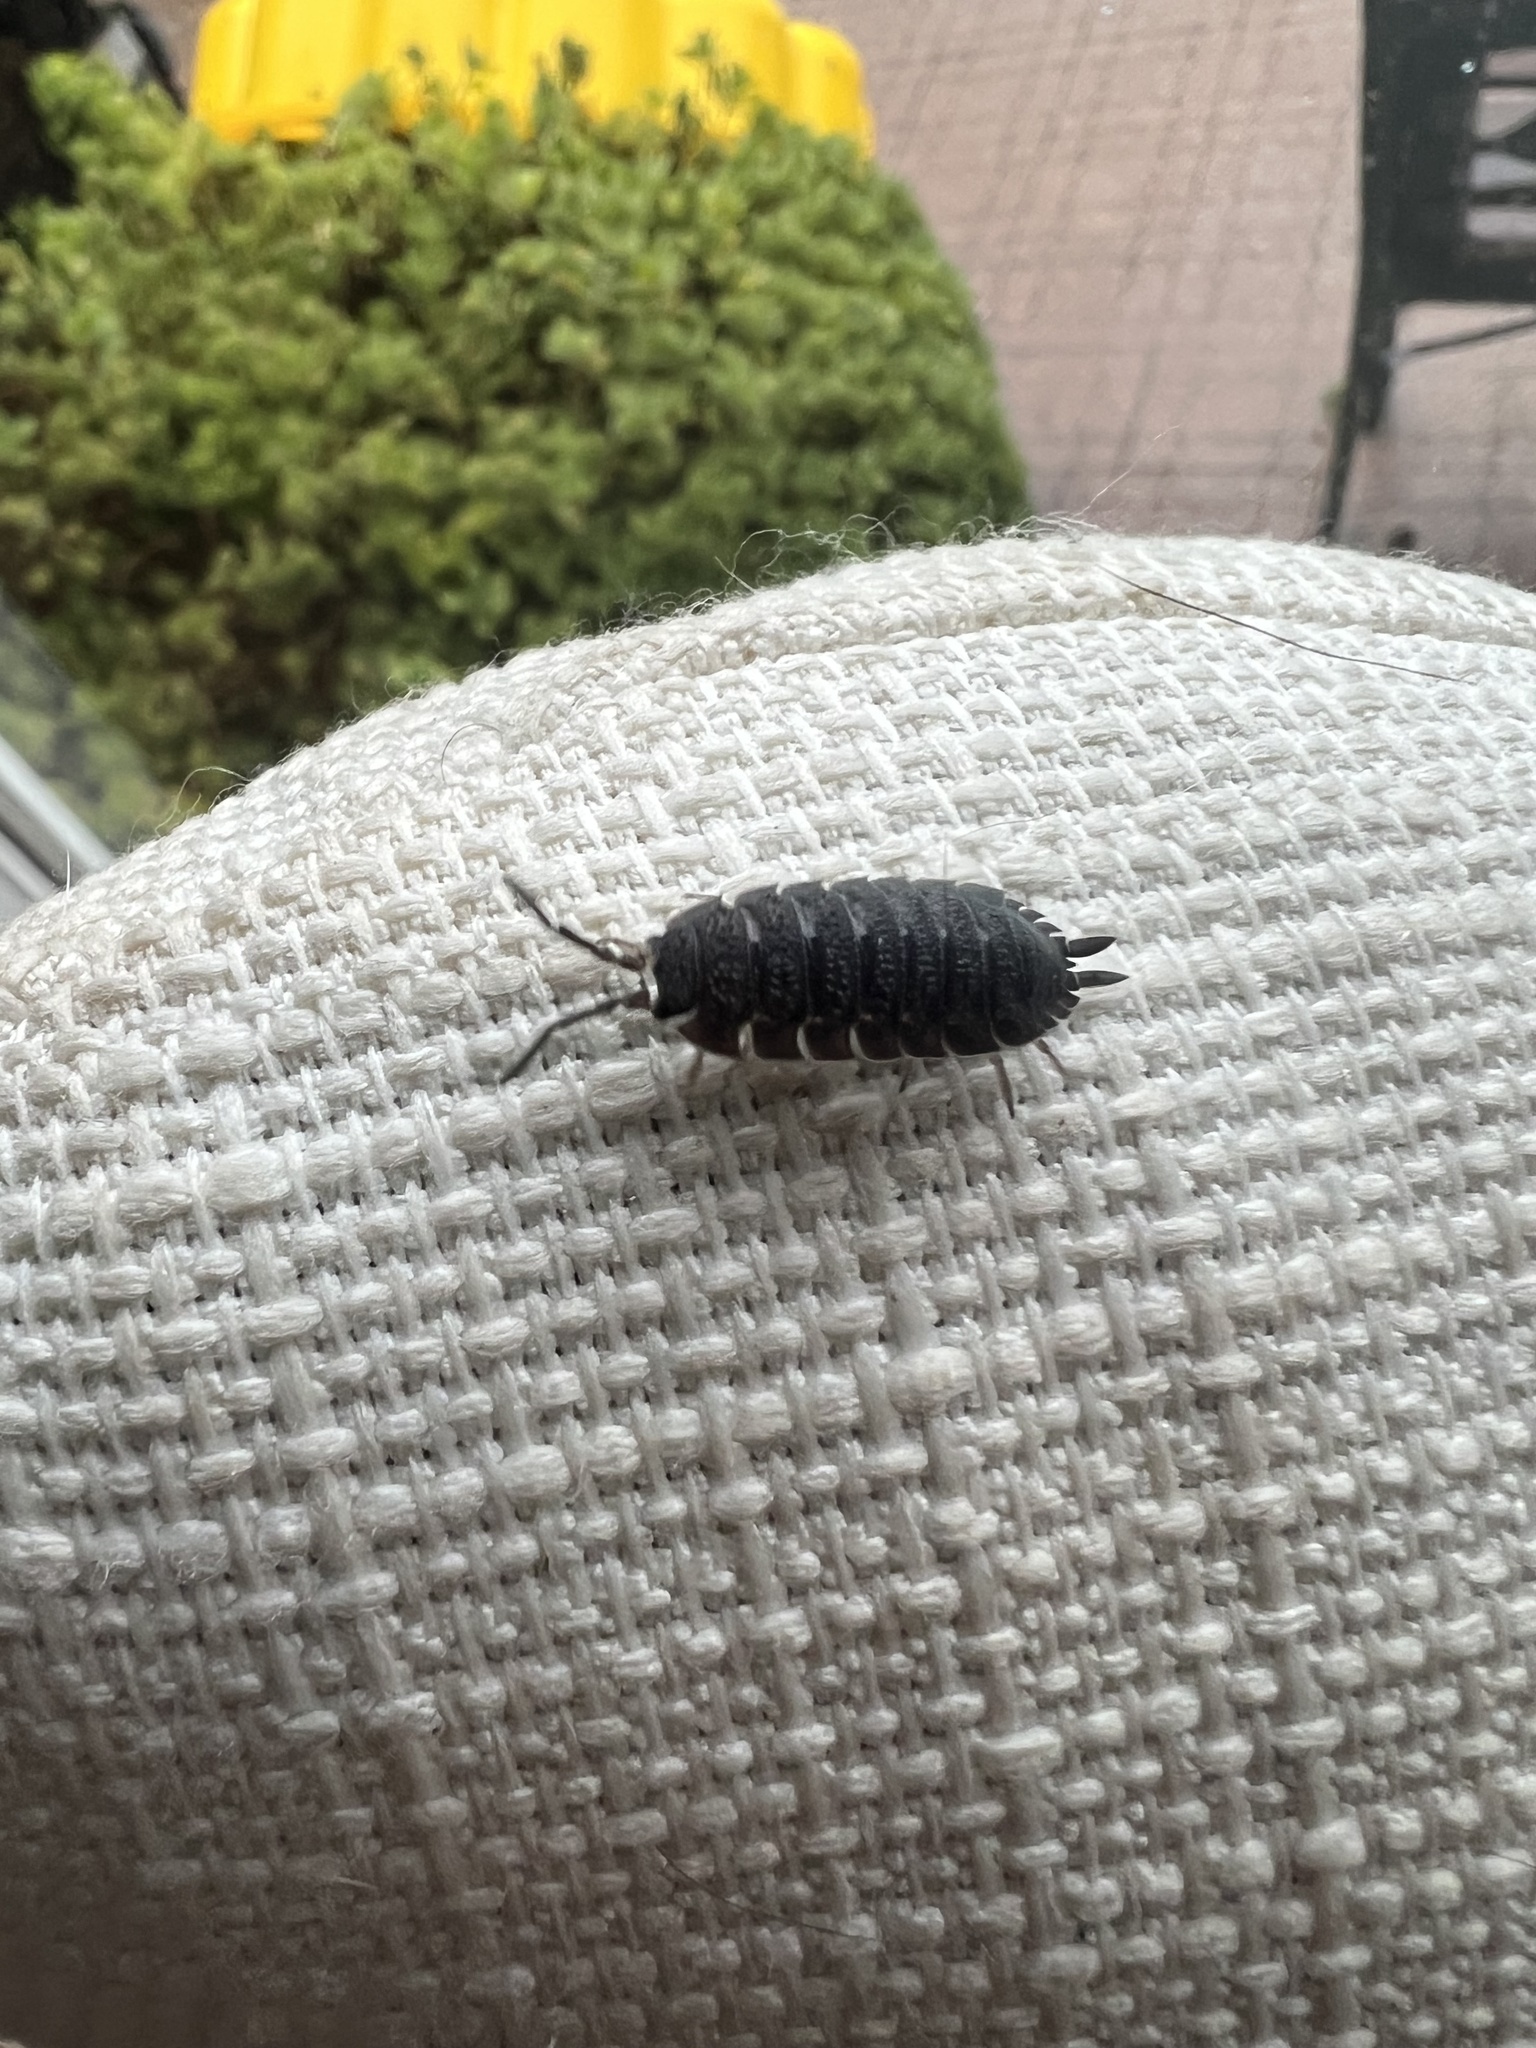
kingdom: Animalia
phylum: Arthropoda
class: Malacostraca
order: Isopoda
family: Porcellionidae
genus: Porcellio
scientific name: Porcellio scaber
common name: Common rough woodlouse
